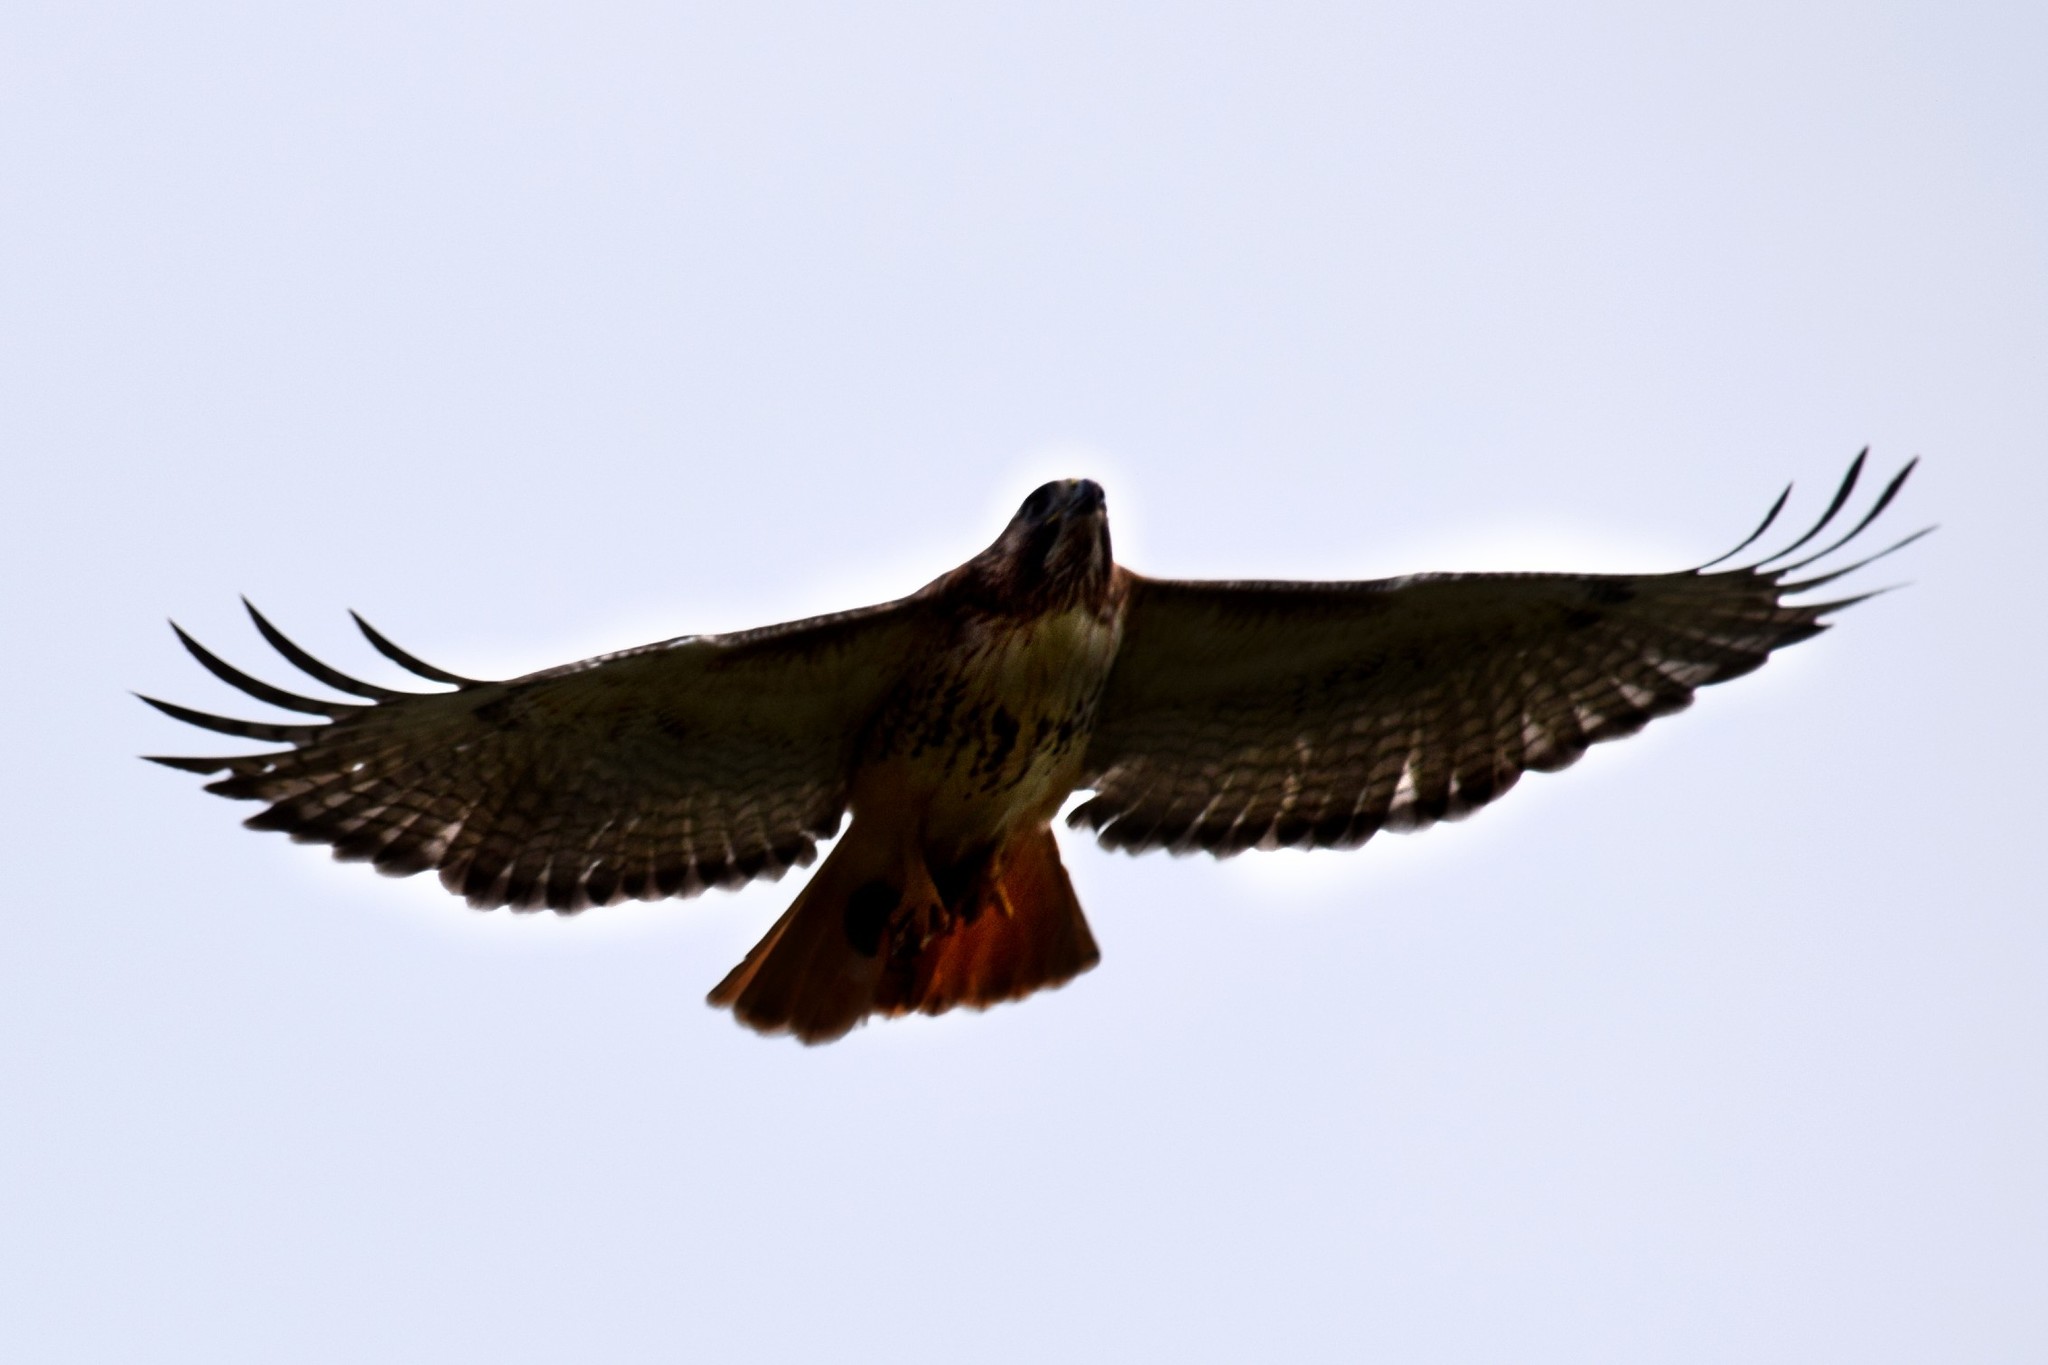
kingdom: Animalia
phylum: Chordata
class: Aves
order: Accipitriformes
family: Accipitridae
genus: Buteo
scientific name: Buteo jamaicensis
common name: Red-tailed hawk
